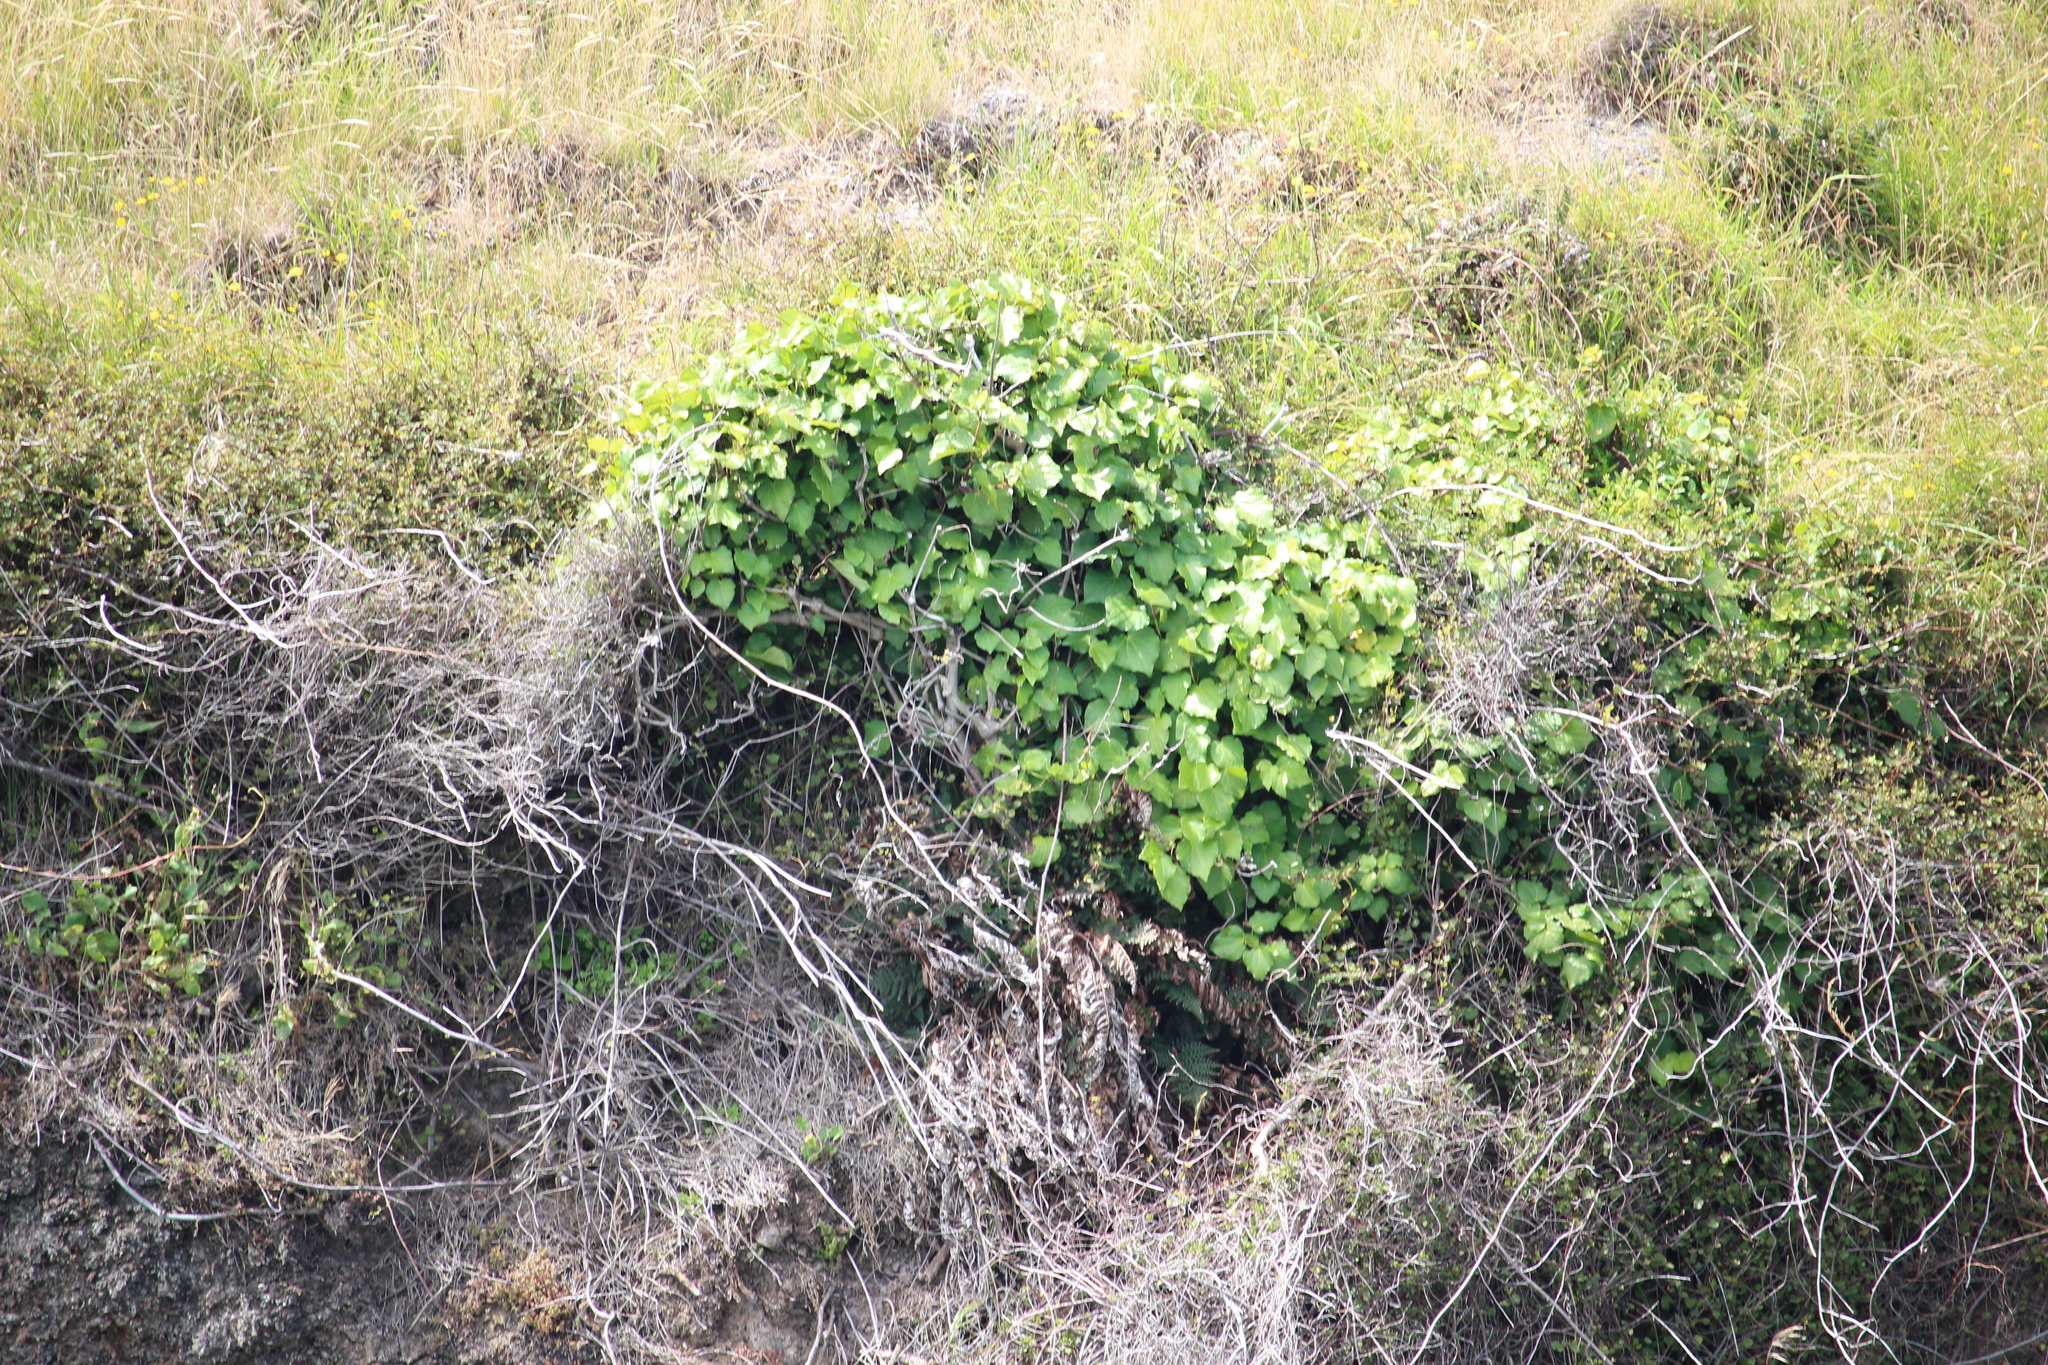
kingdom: Plantae
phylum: Tracheophyta
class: Magnoliopsida
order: Piperales
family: Piperaceae
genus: Macropiper
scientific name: Macropiper excelsum
